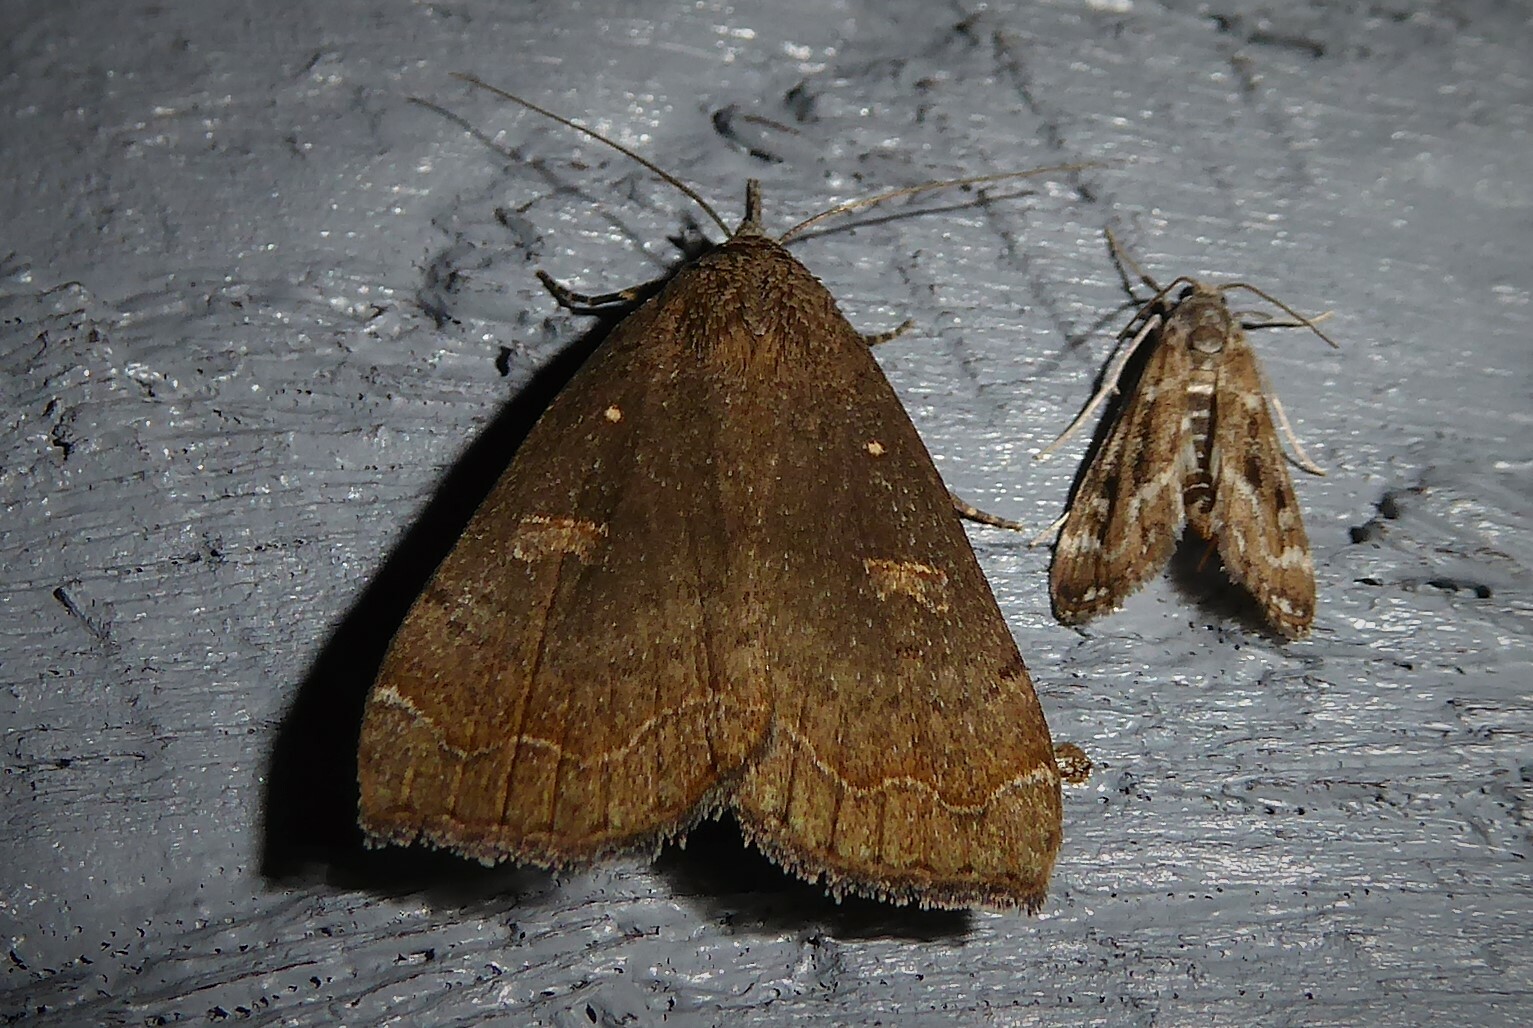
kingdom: Animalia
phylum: Arthropoda
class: Insecta
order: Lepidoptera
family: Erebidae
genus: Rhapsa
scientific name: Rhapsa scotosialis
